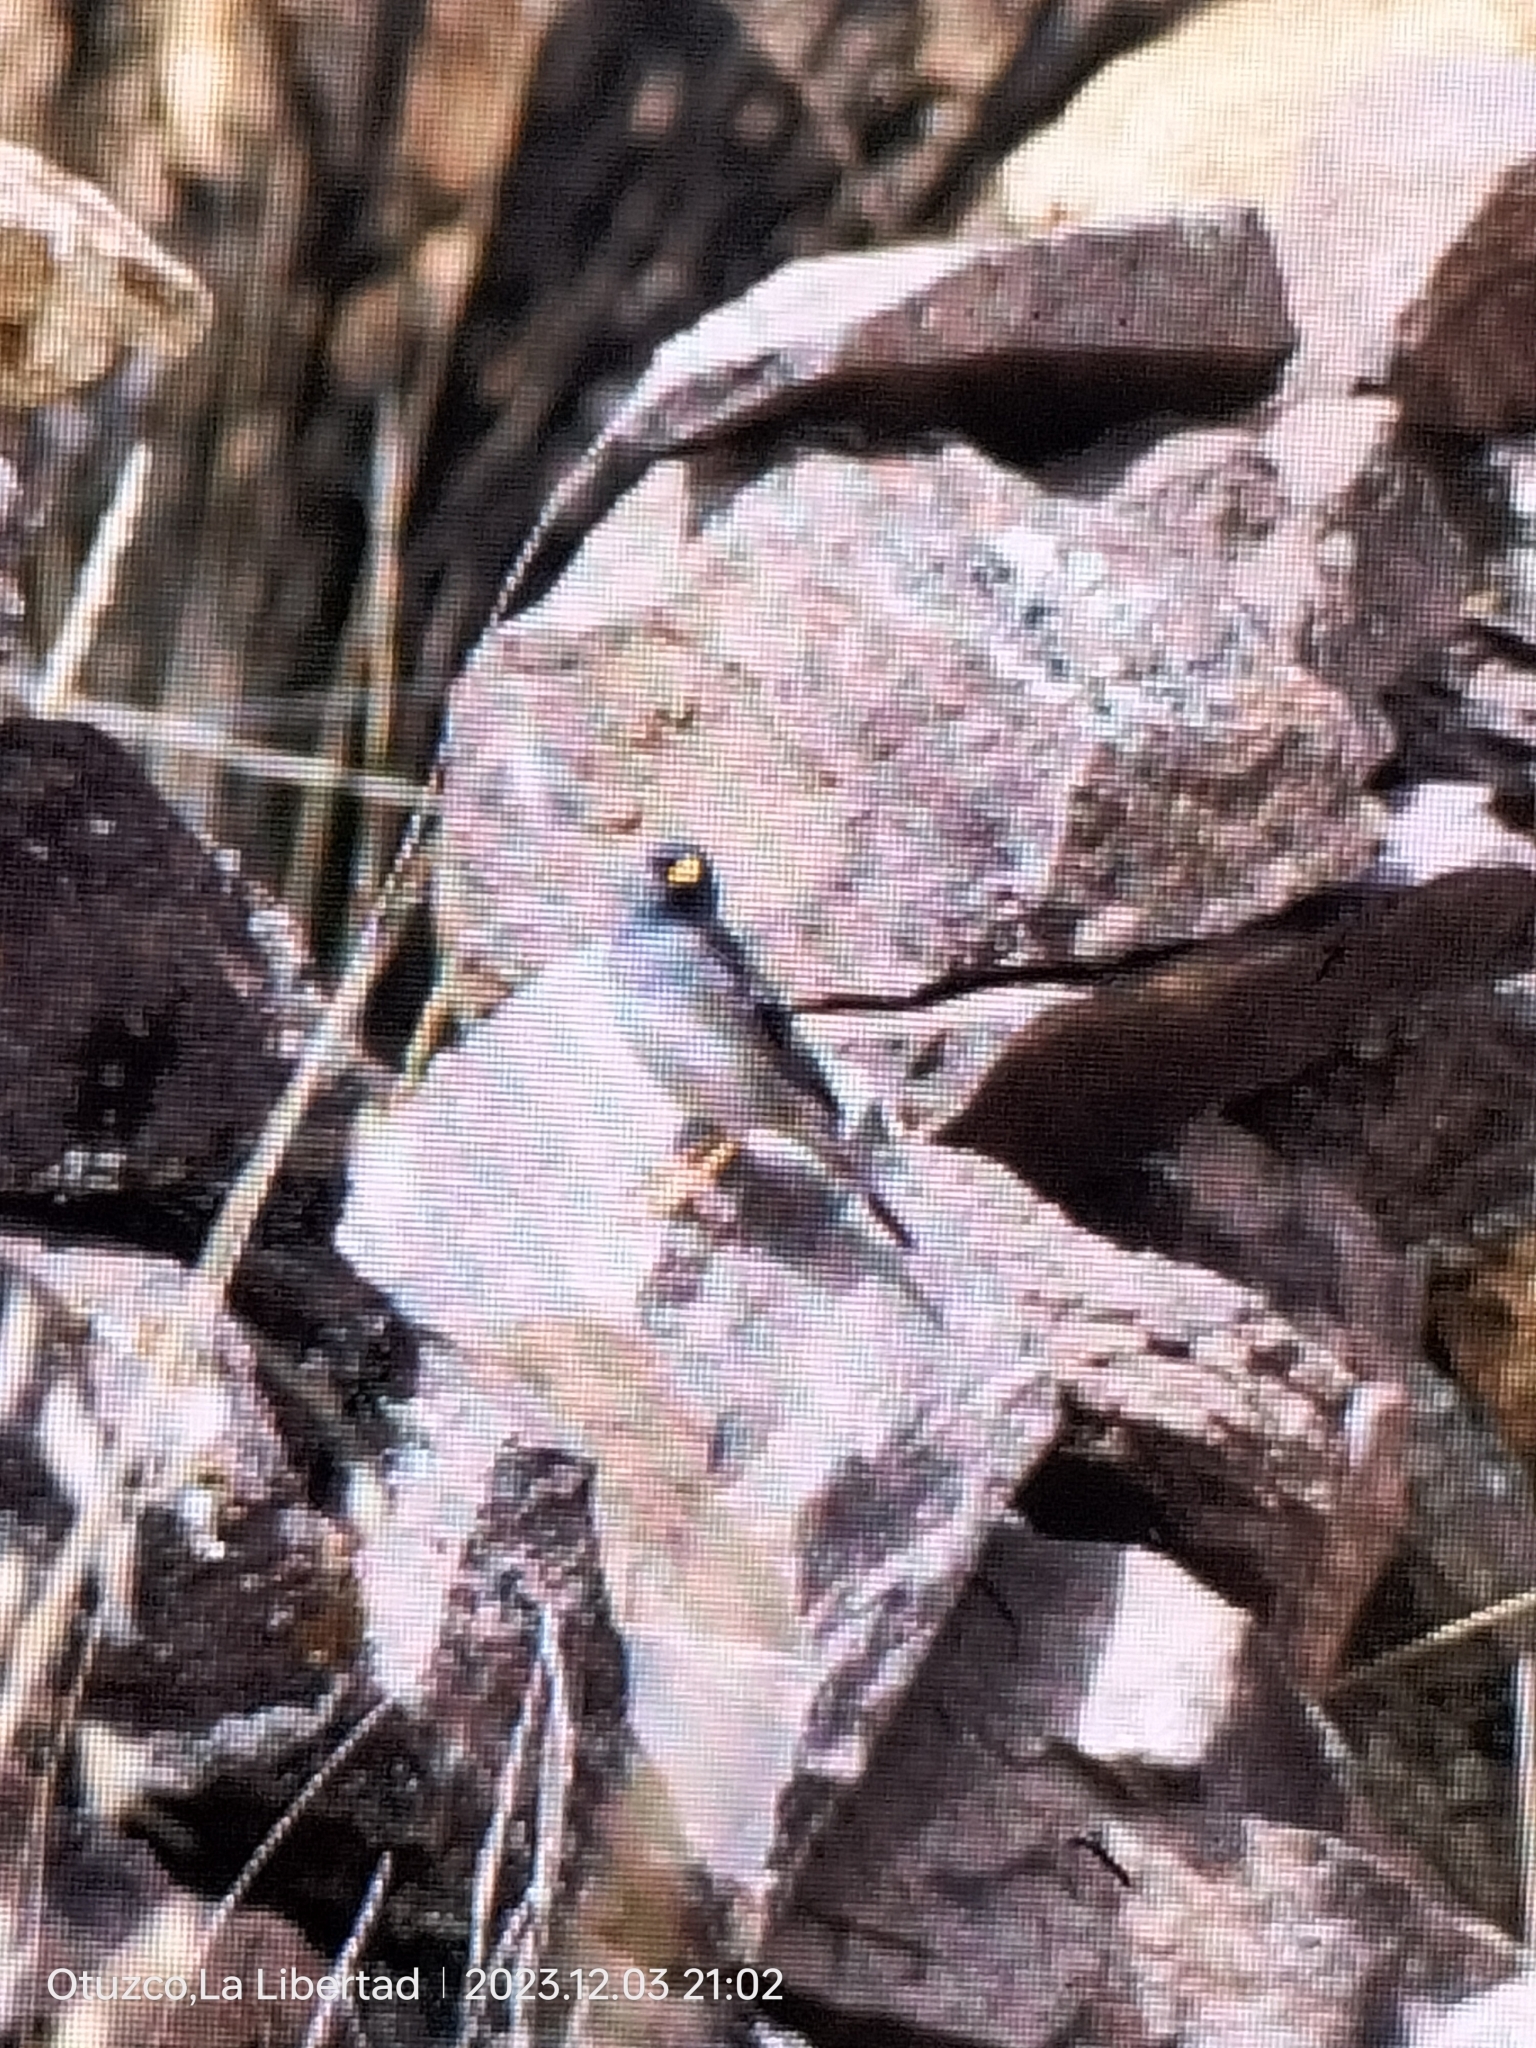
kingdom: Animalia
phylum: Chordata
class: Aves
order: Passeriformes
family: Thraupidae
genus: Porphyrospiza
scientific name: Porphyrospiza alaudina
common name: Band-tailed sierra finch
